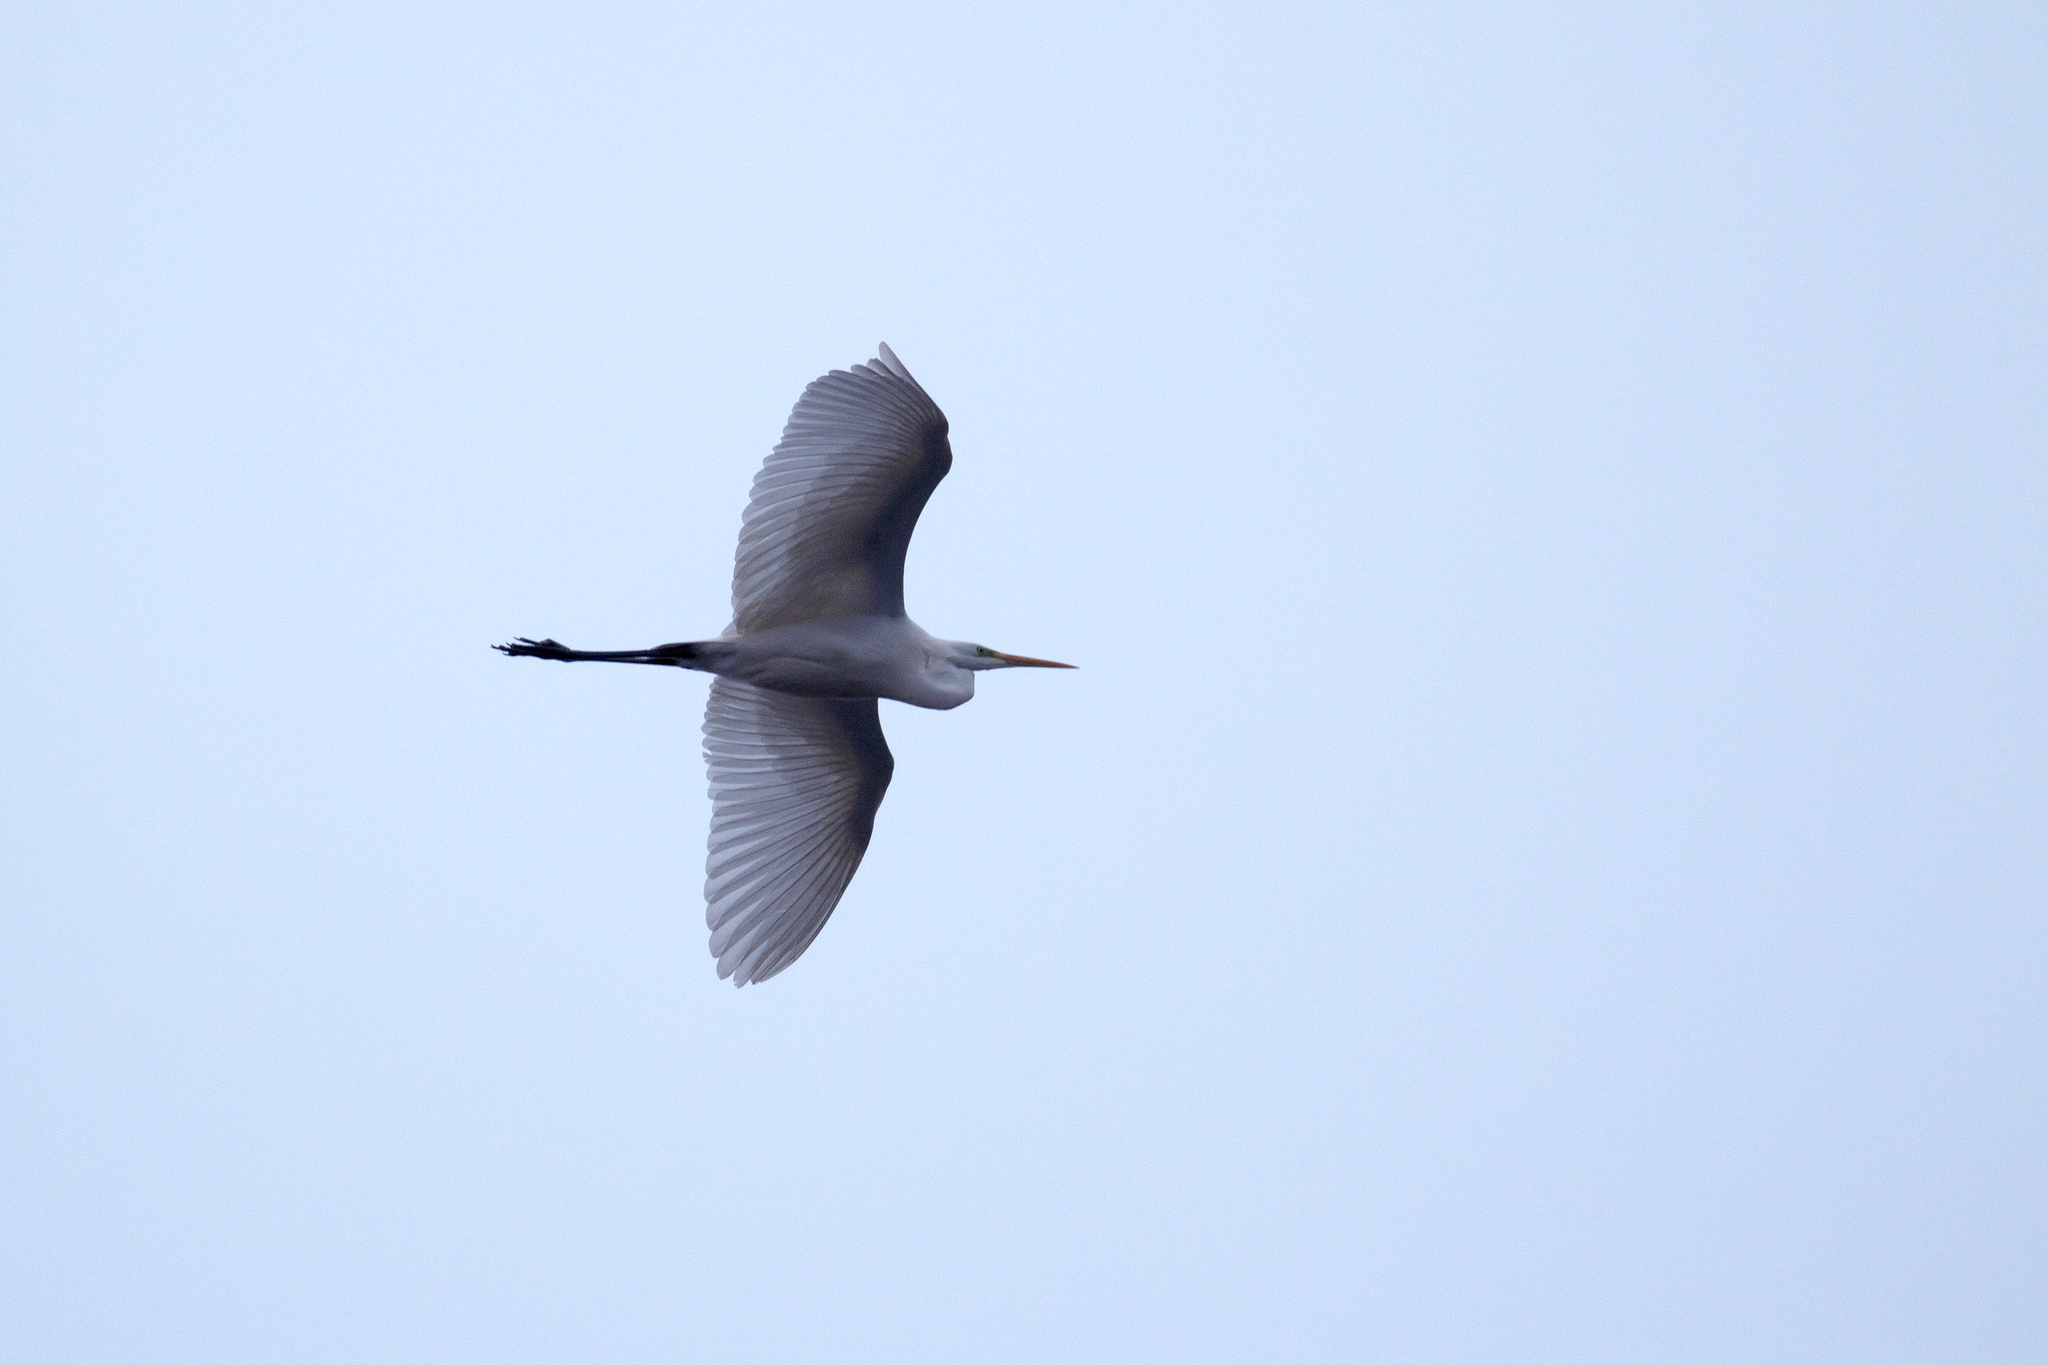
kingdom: Animalia
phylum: Chordata
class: Aves
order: Pelecaniformes
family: Ardeidae
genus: Ardea
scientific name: Ardea alba
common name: Great egret
